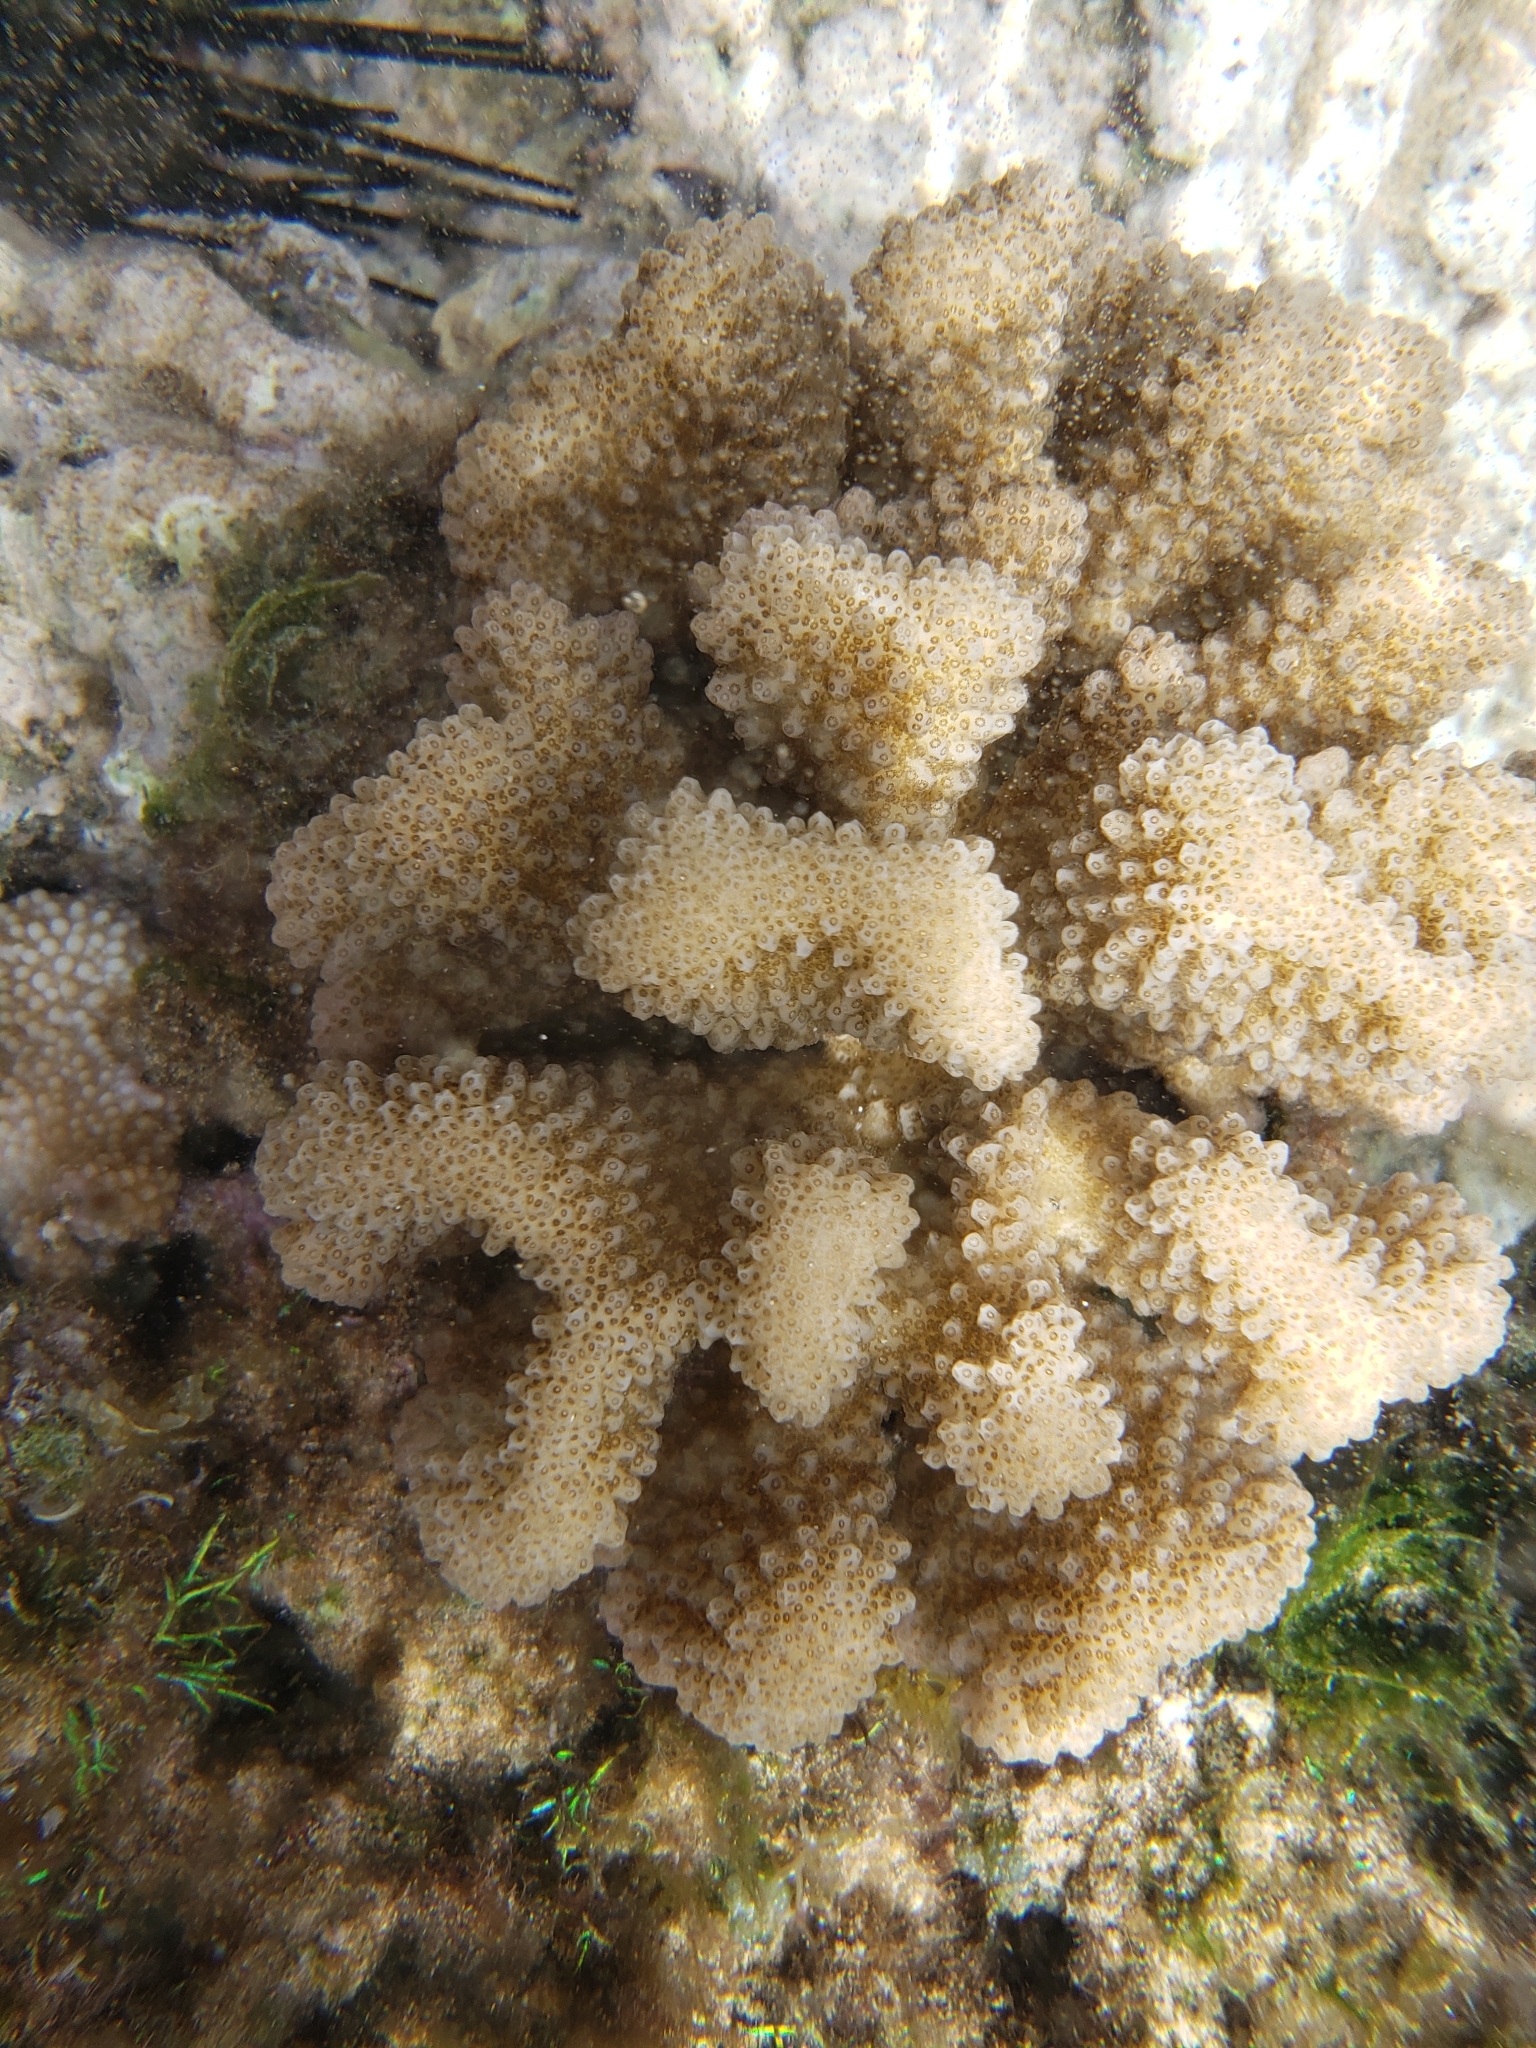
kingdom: Animalia
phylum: Cnidaria
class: Anthozoa
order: Scleractinia
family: Pocilloporidae
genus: Pocillopora
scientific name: Pocillopora meandrina
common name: Cauliflower coral
